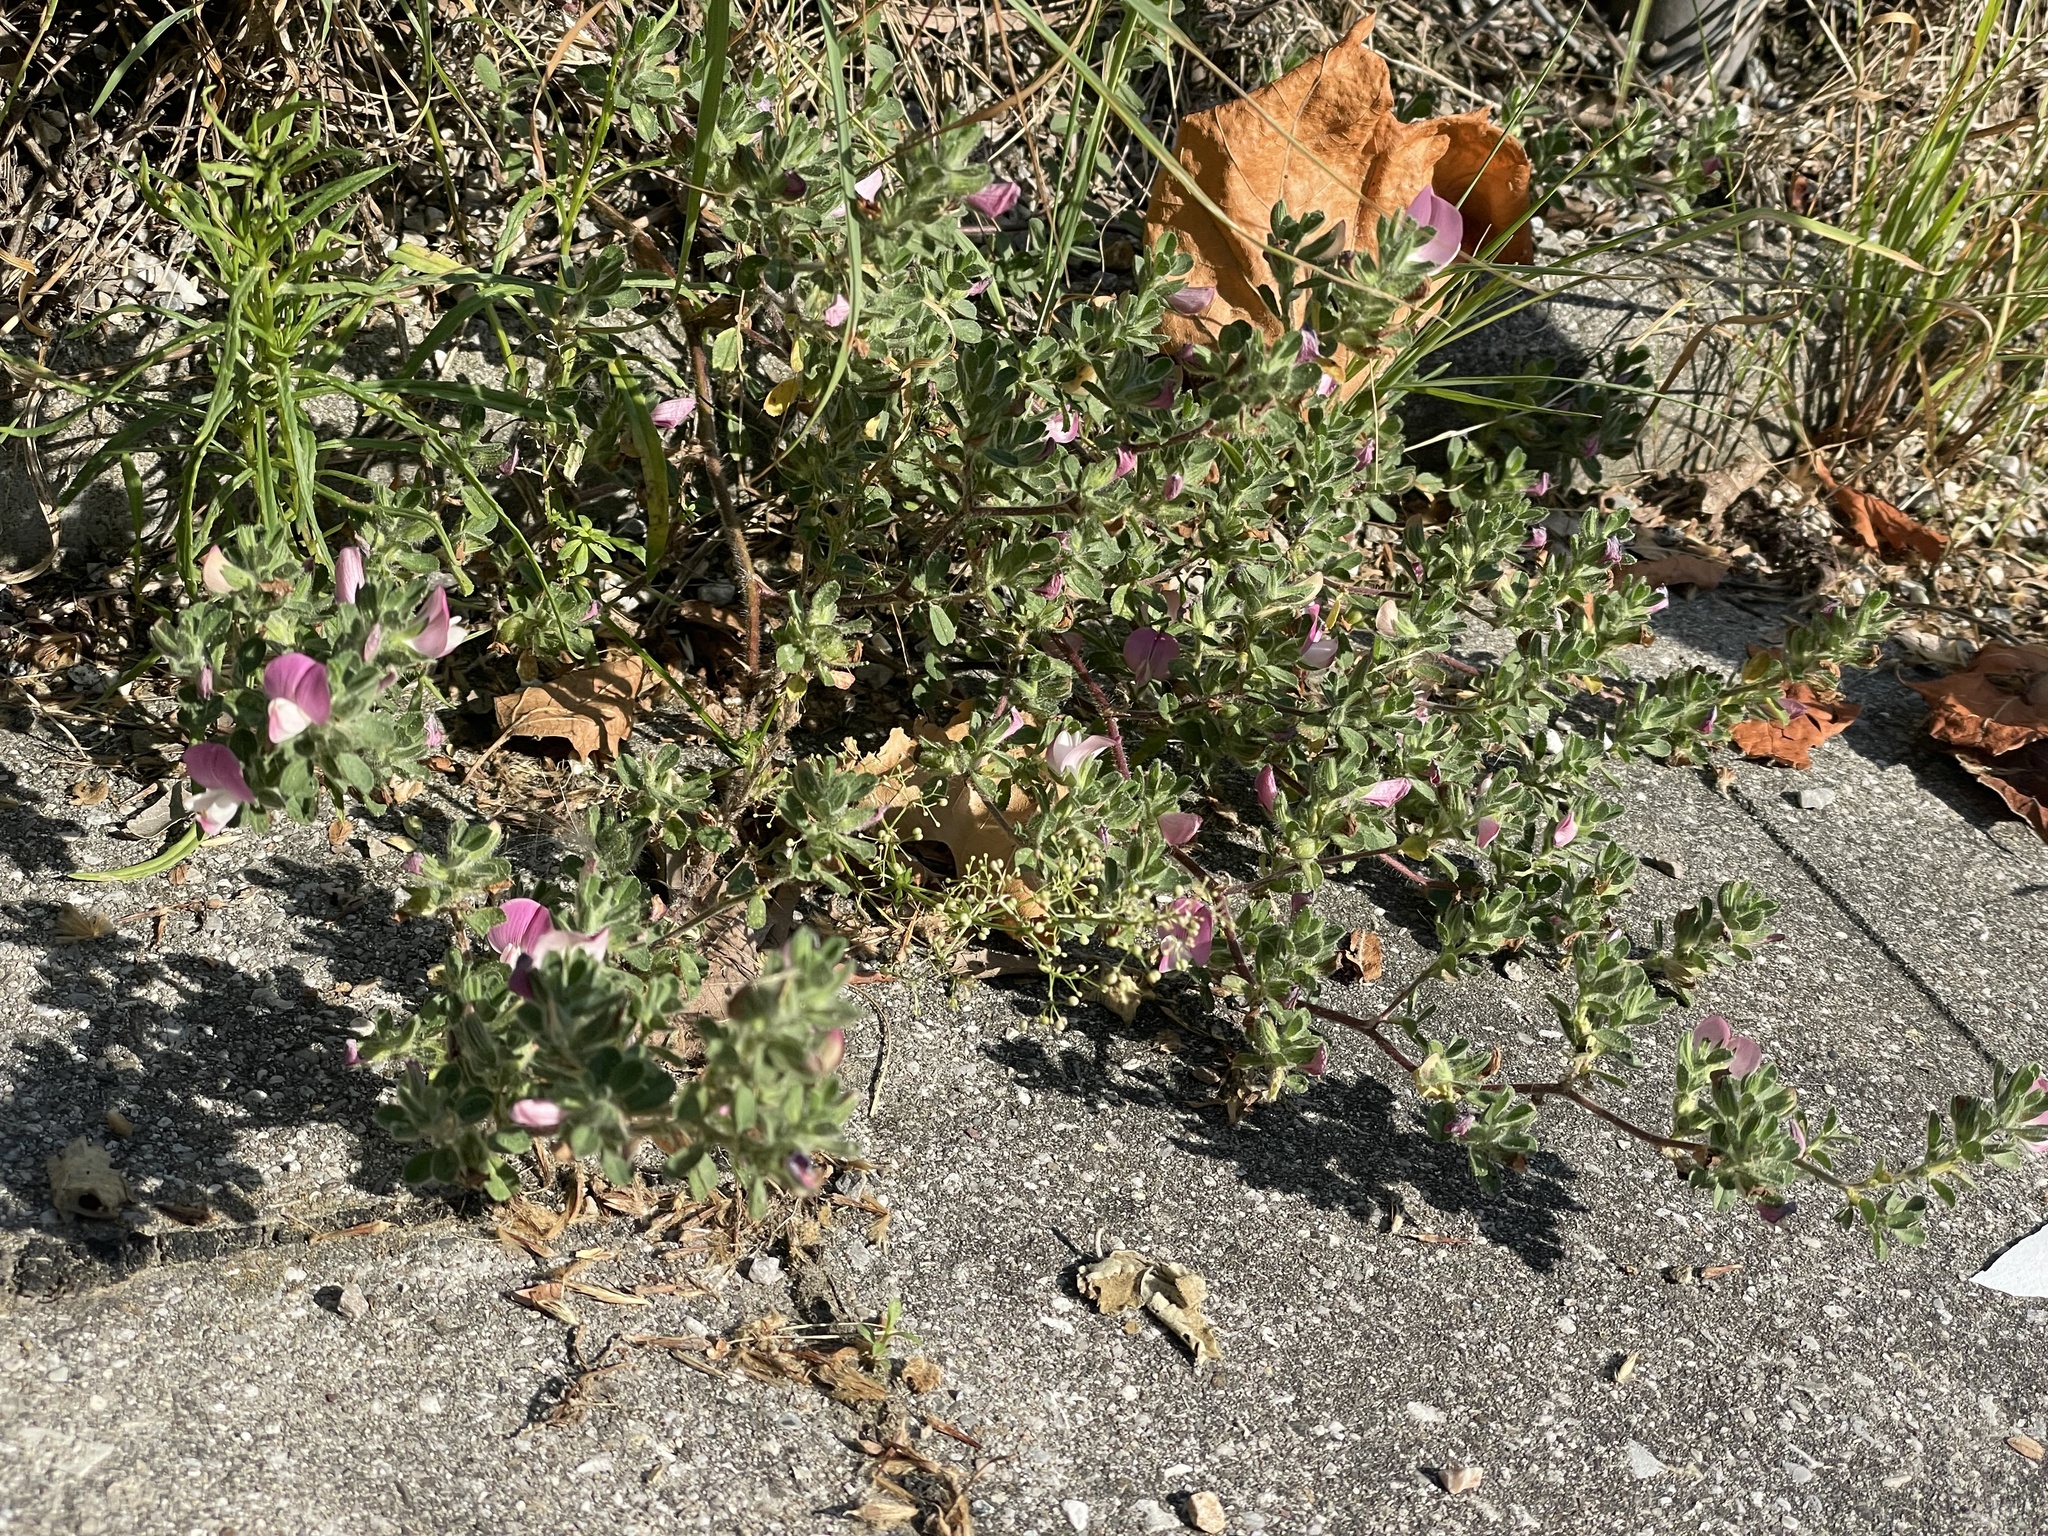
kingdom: Plantae
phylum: Tracheophyta
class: Magnoliopsida
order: Fabales
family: Fabaceae
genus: Ononis
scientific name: Ononis spinosa
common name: Spiny restharrow
